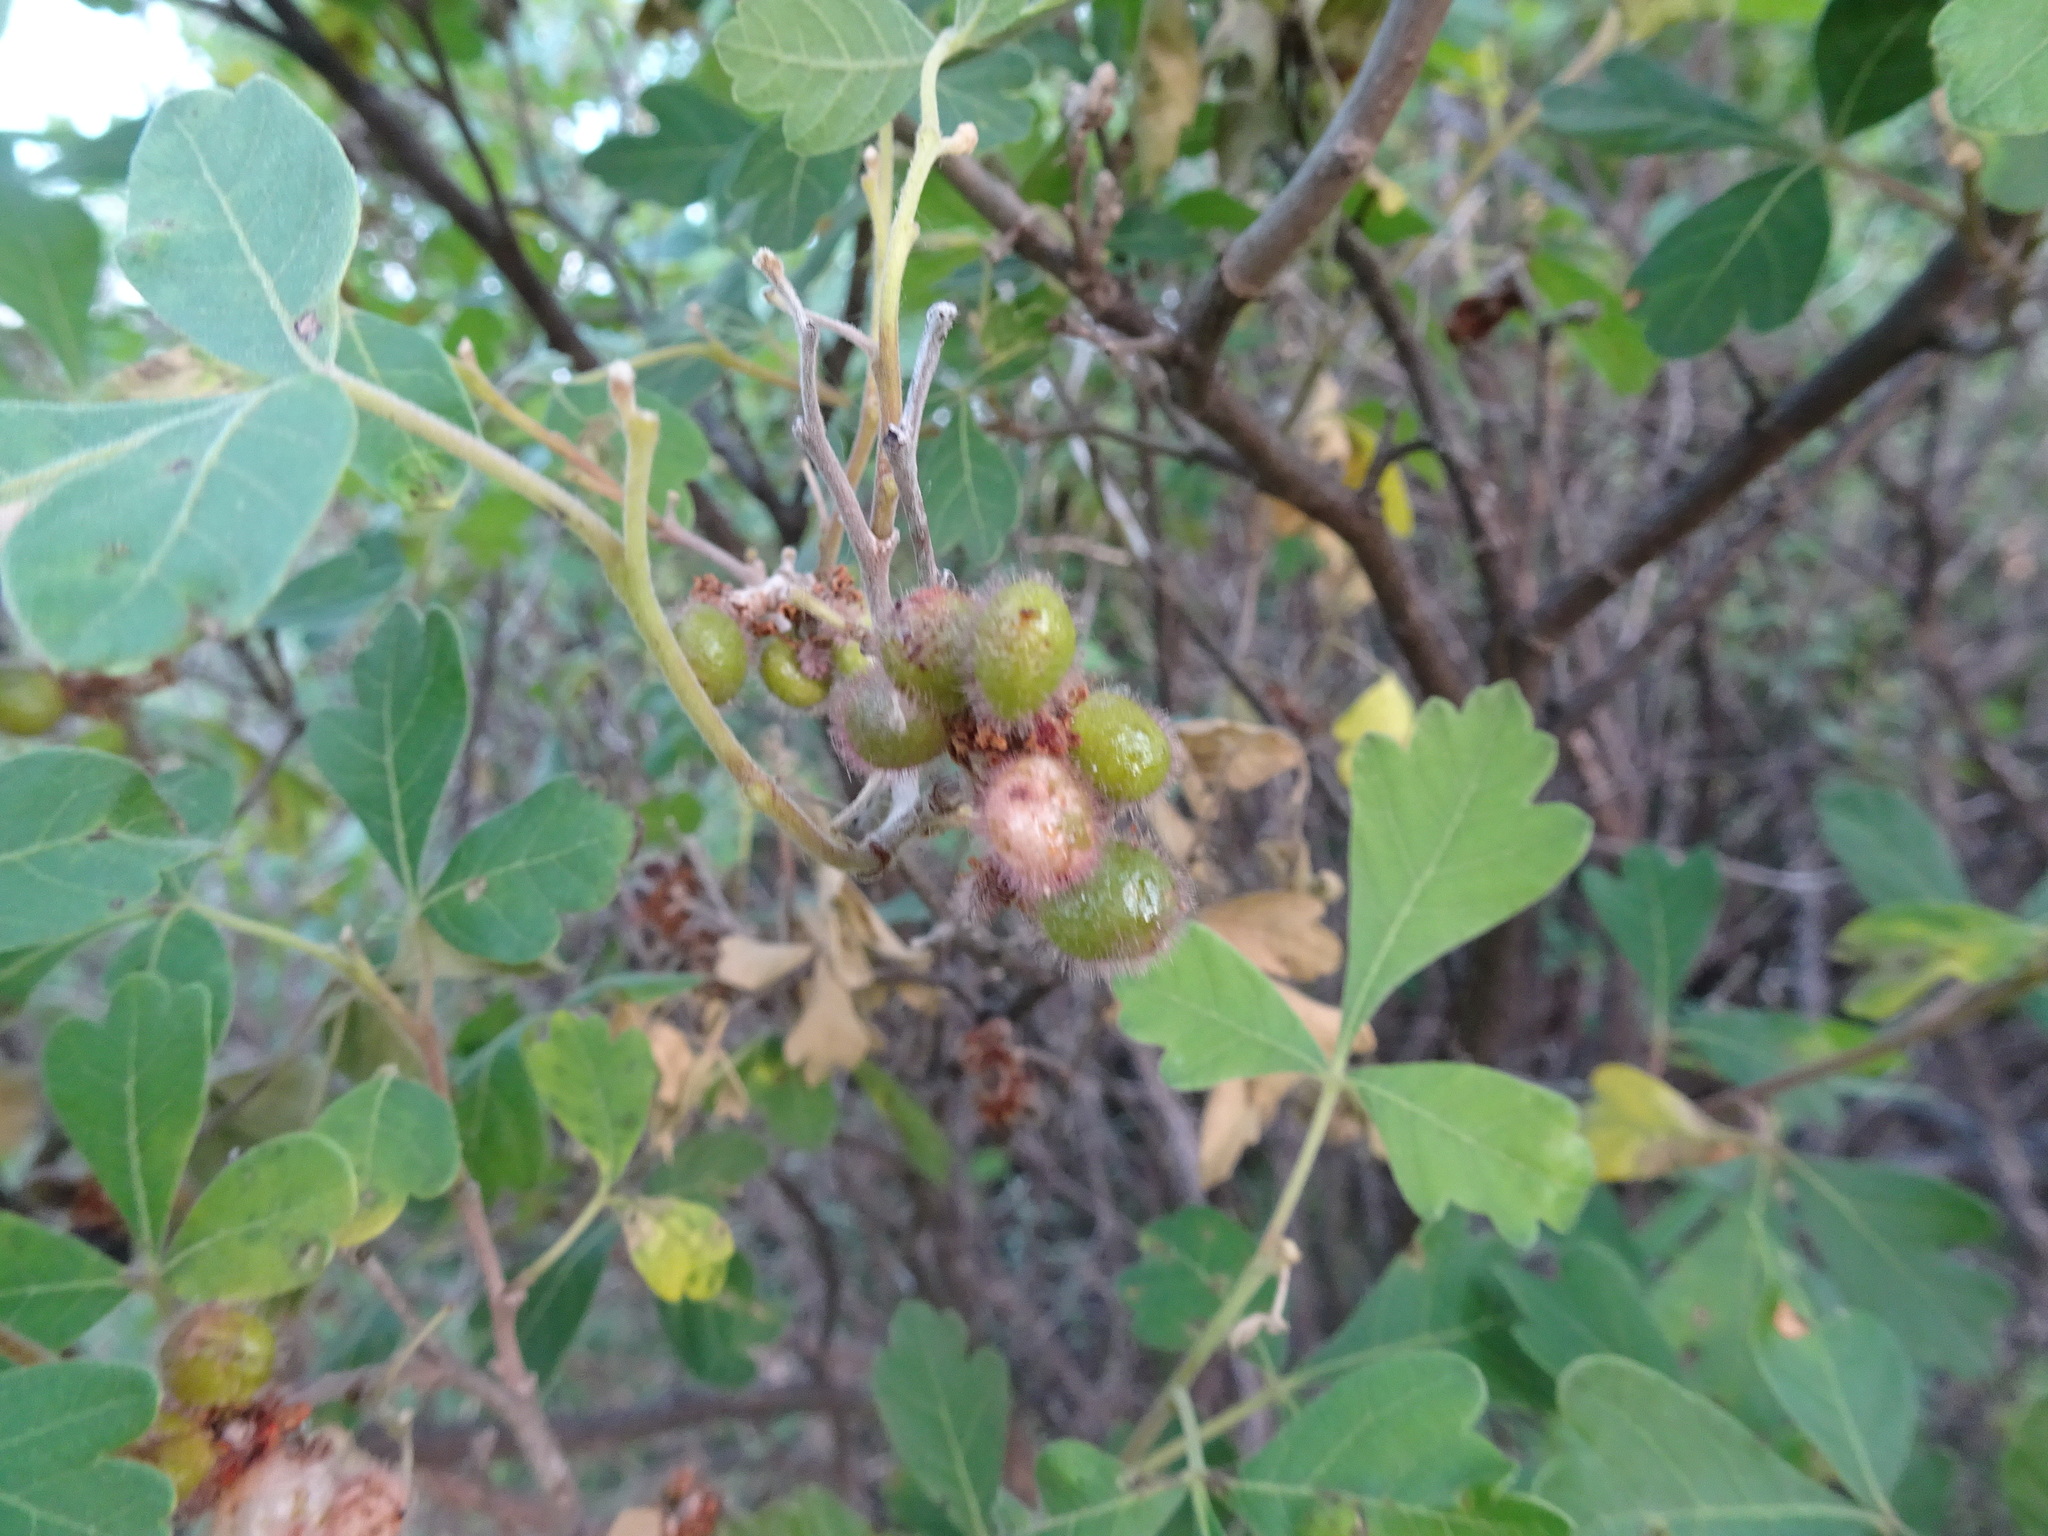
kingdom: Plantae
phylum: Tracheophyta
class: Magnoliopsida
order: Sapindales
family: Anacardiaceae
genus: Rhus
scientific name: Rhus aromatica
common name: Aromatic sumac
